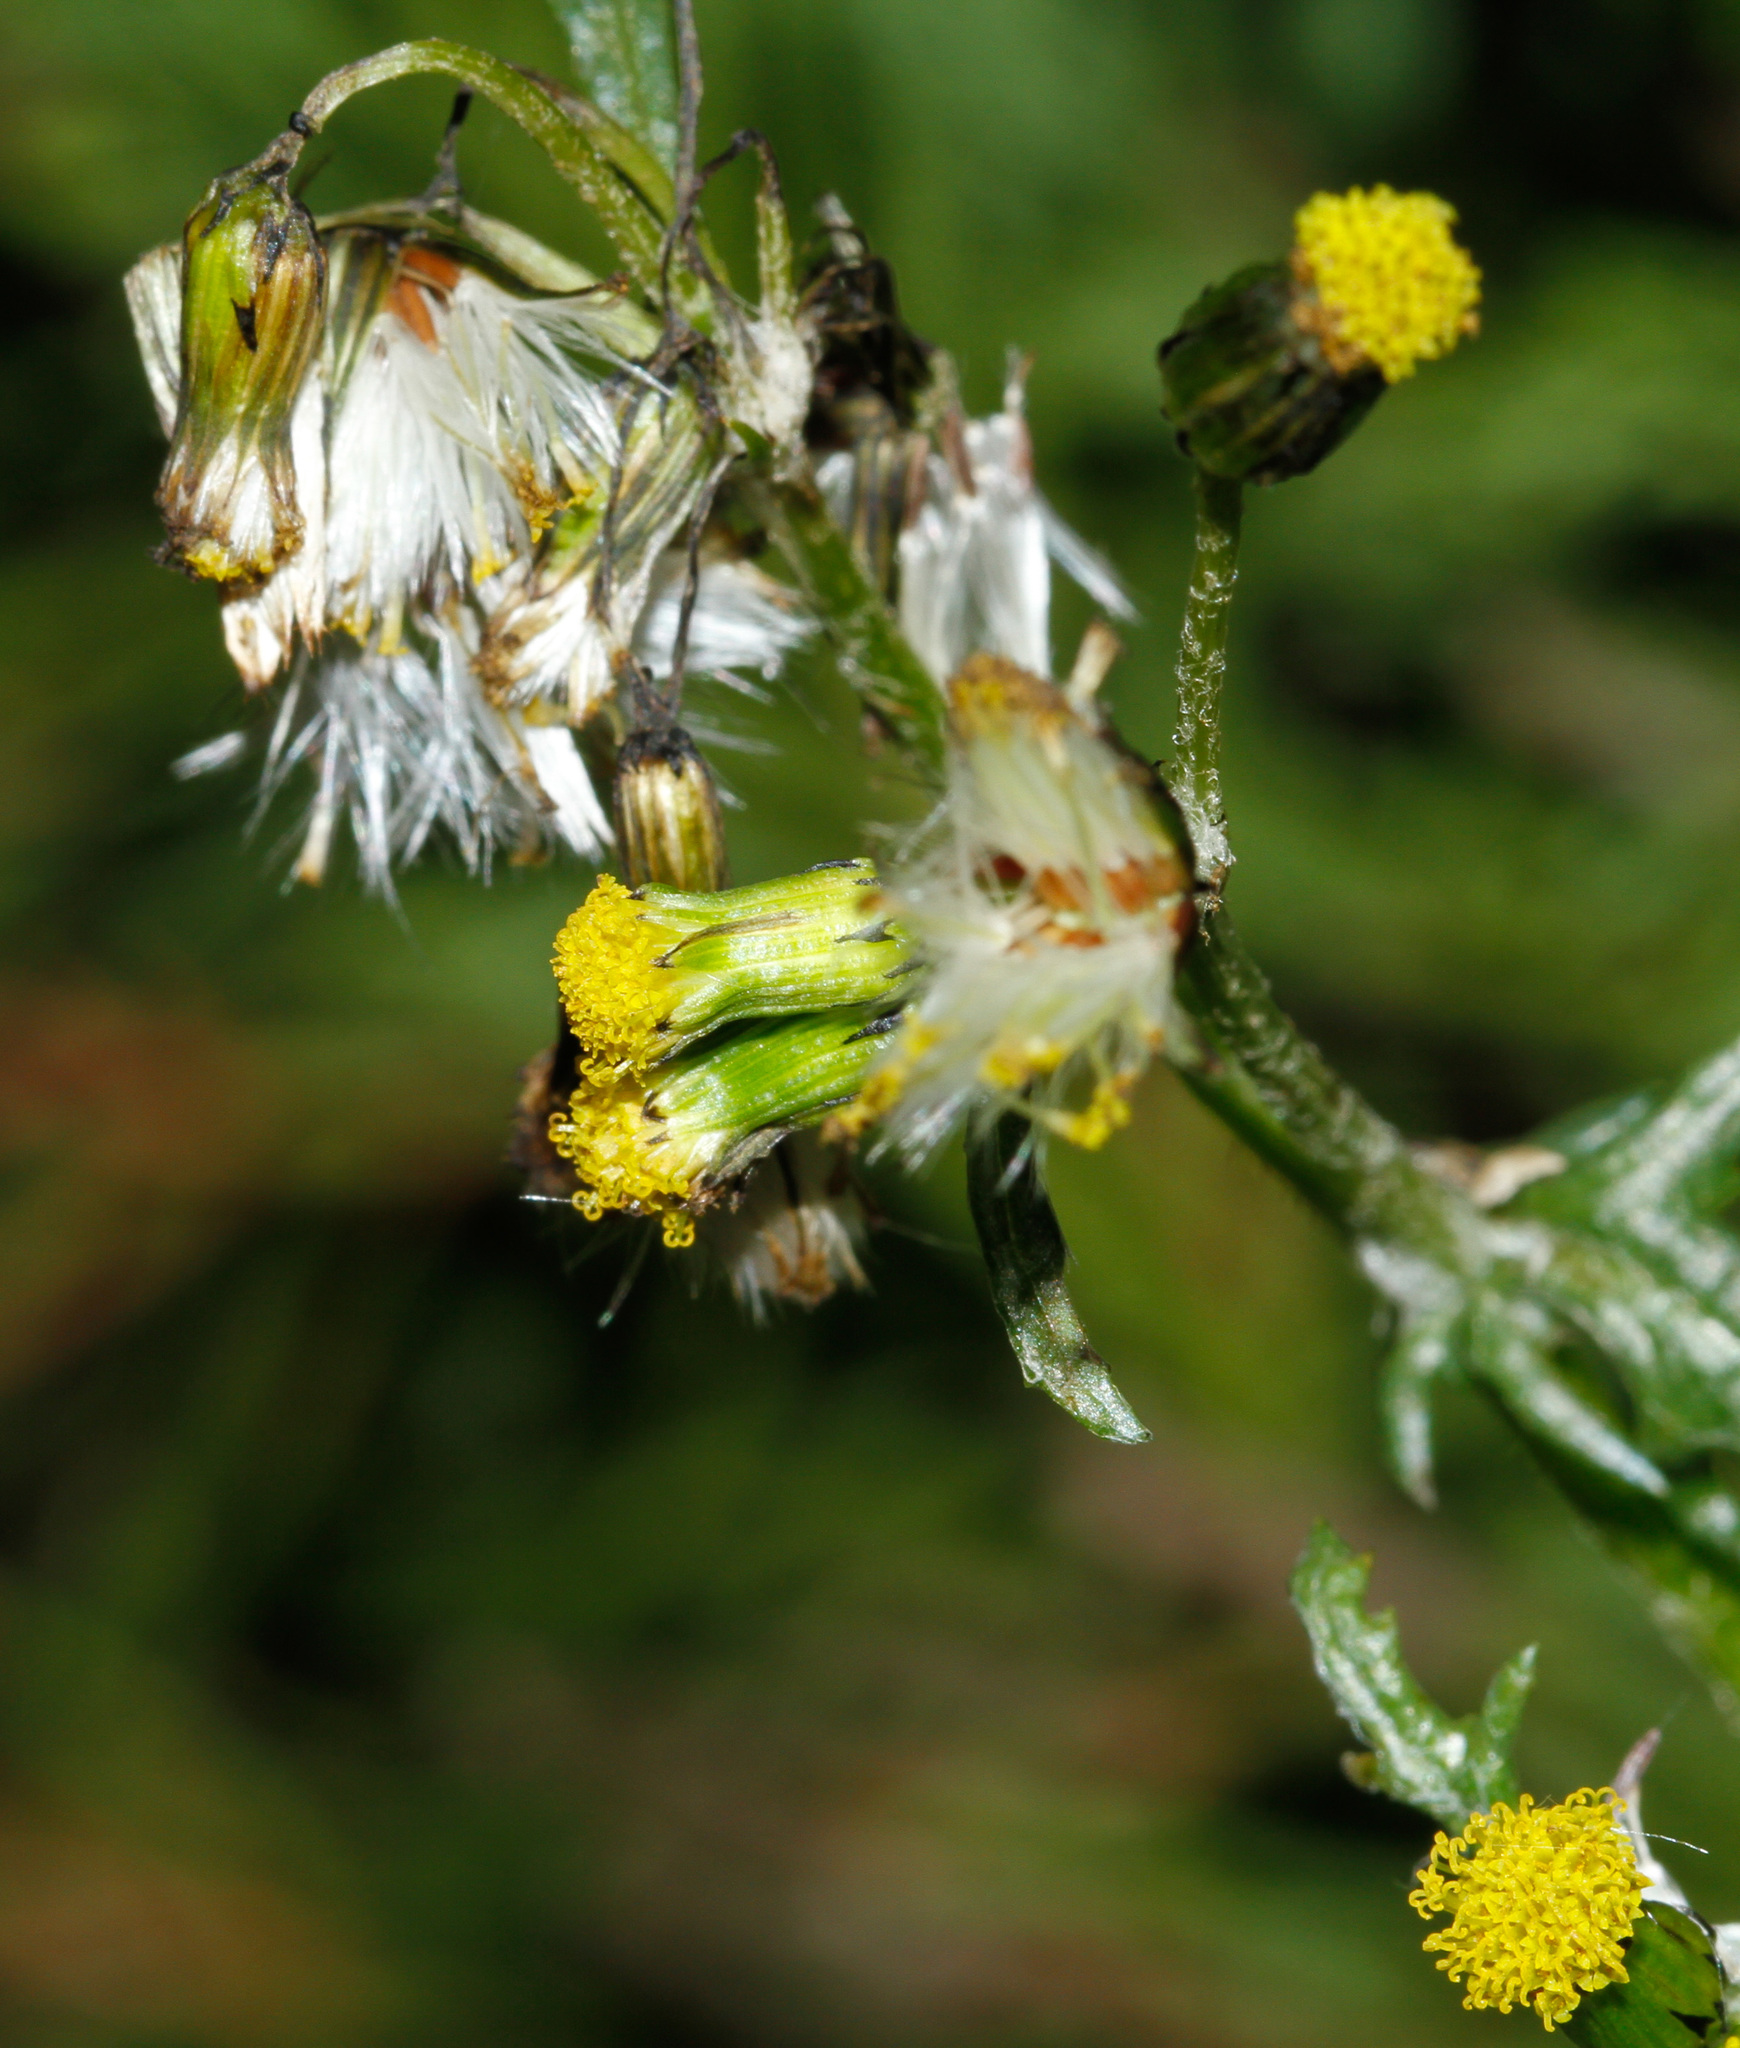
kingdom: Plantae
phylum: Tracheophyta
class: Magnoliopsida
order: Asterales
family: Asteraceae
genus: Senecio
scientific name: Senecio vulgaris
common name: Old-man-in-the-spring
